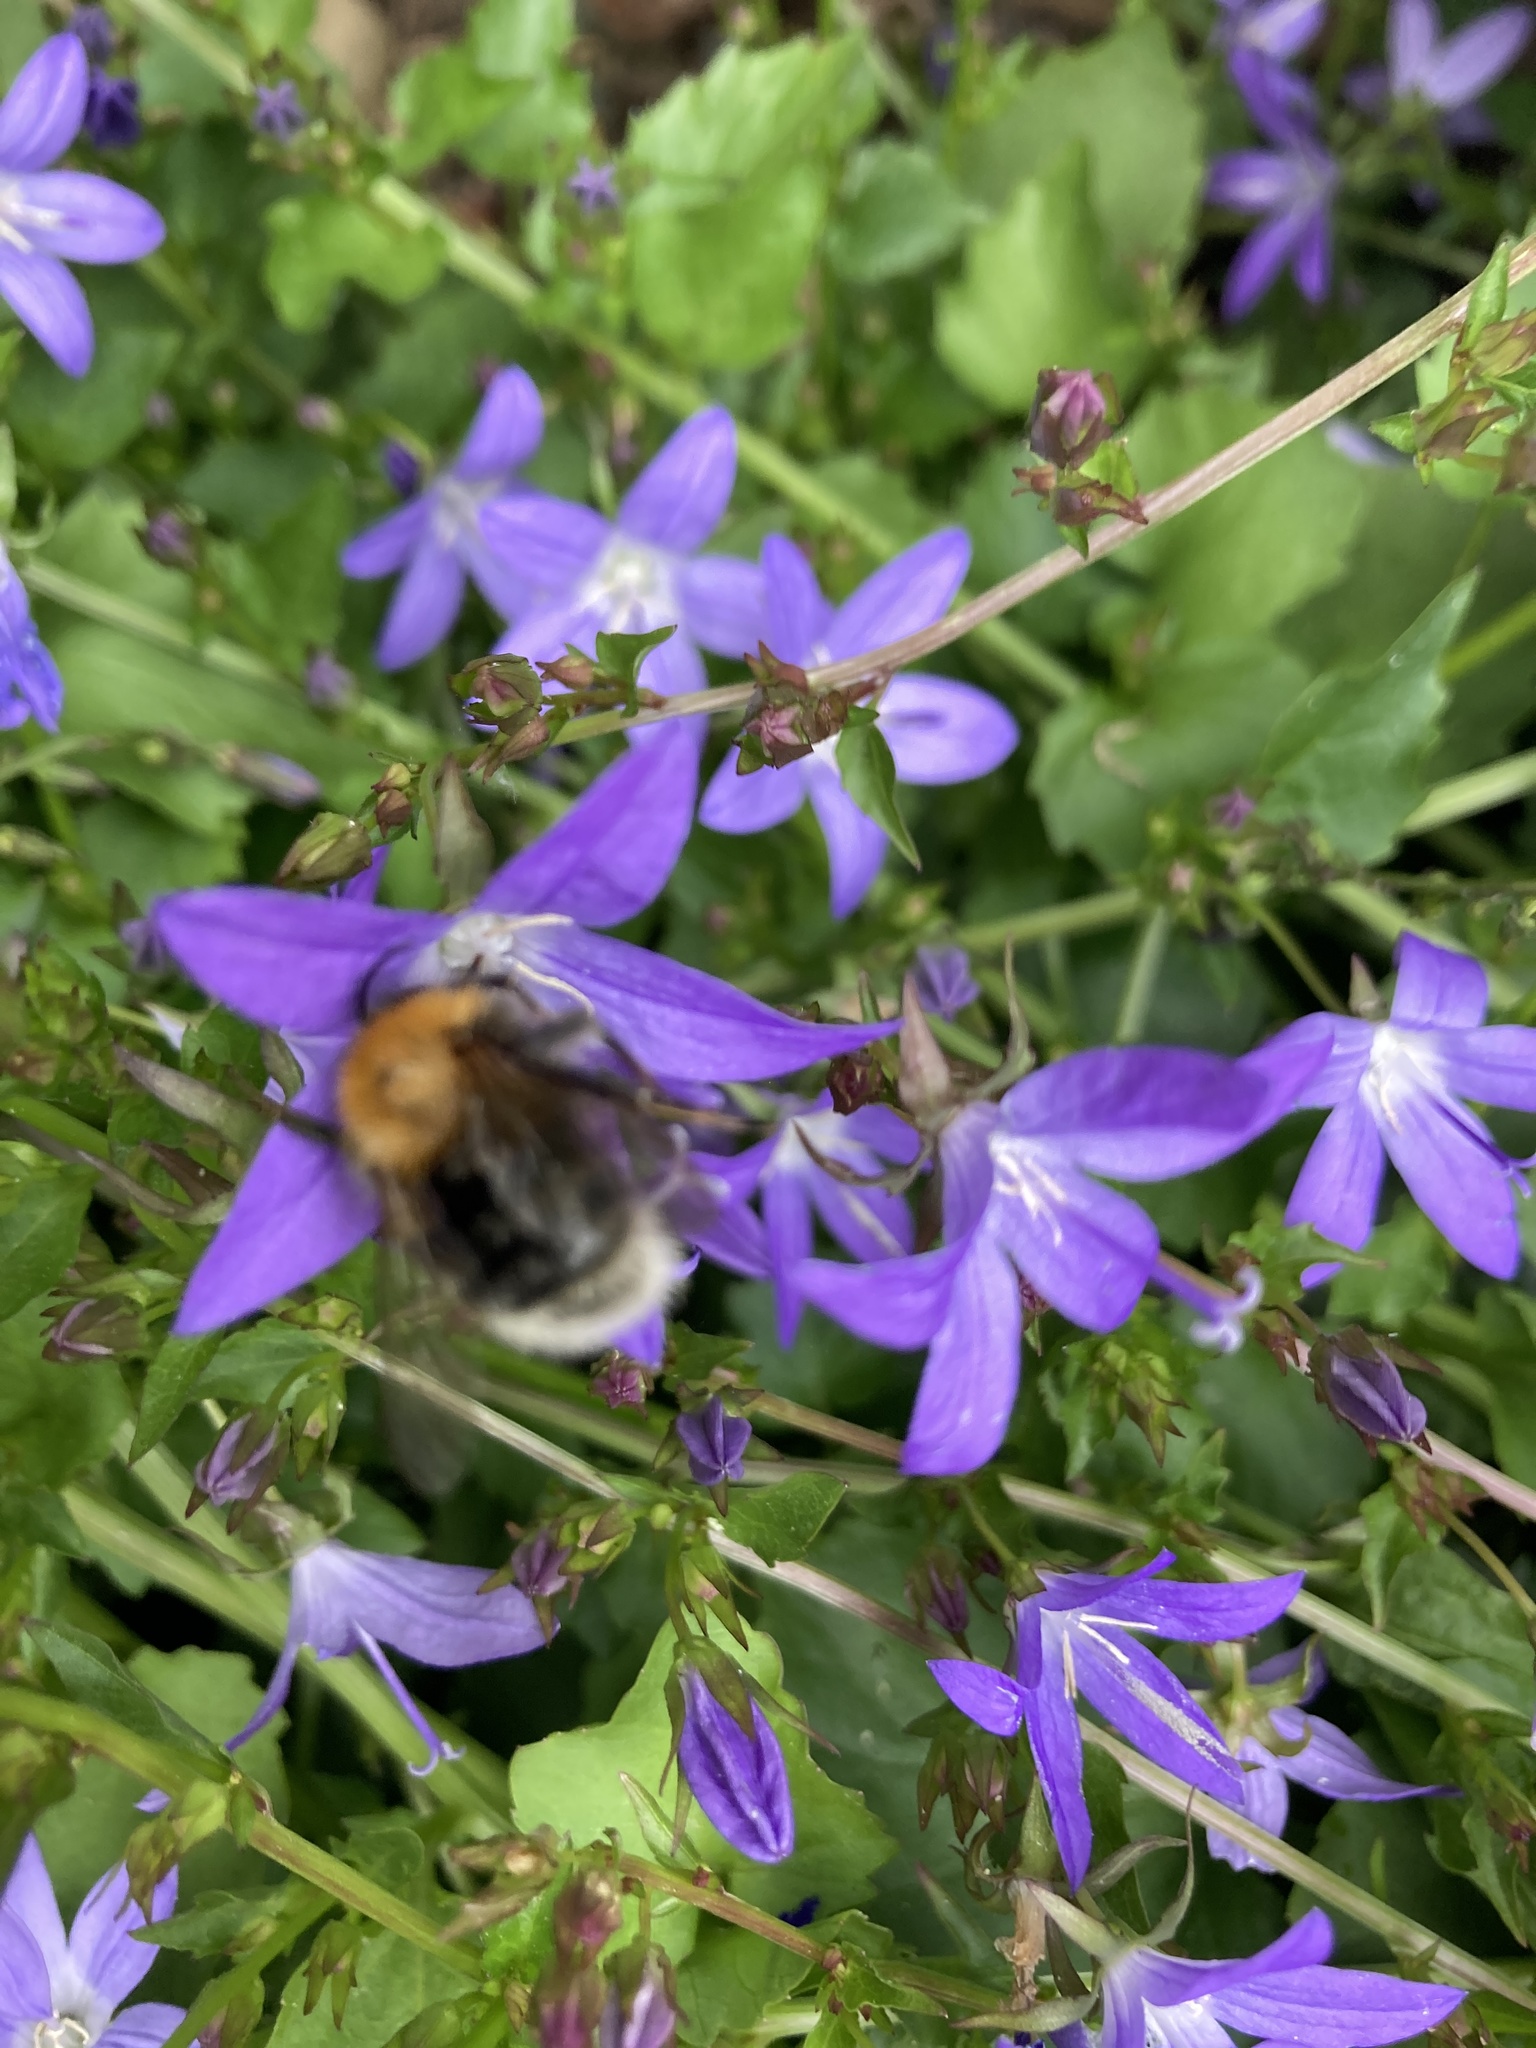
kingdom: Animalia
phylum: Arthropoda
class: Insecta
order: Hymenoptera
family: Apidae
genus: Bombus
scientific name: Bombus hypnorum
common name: New garden bumblebee
